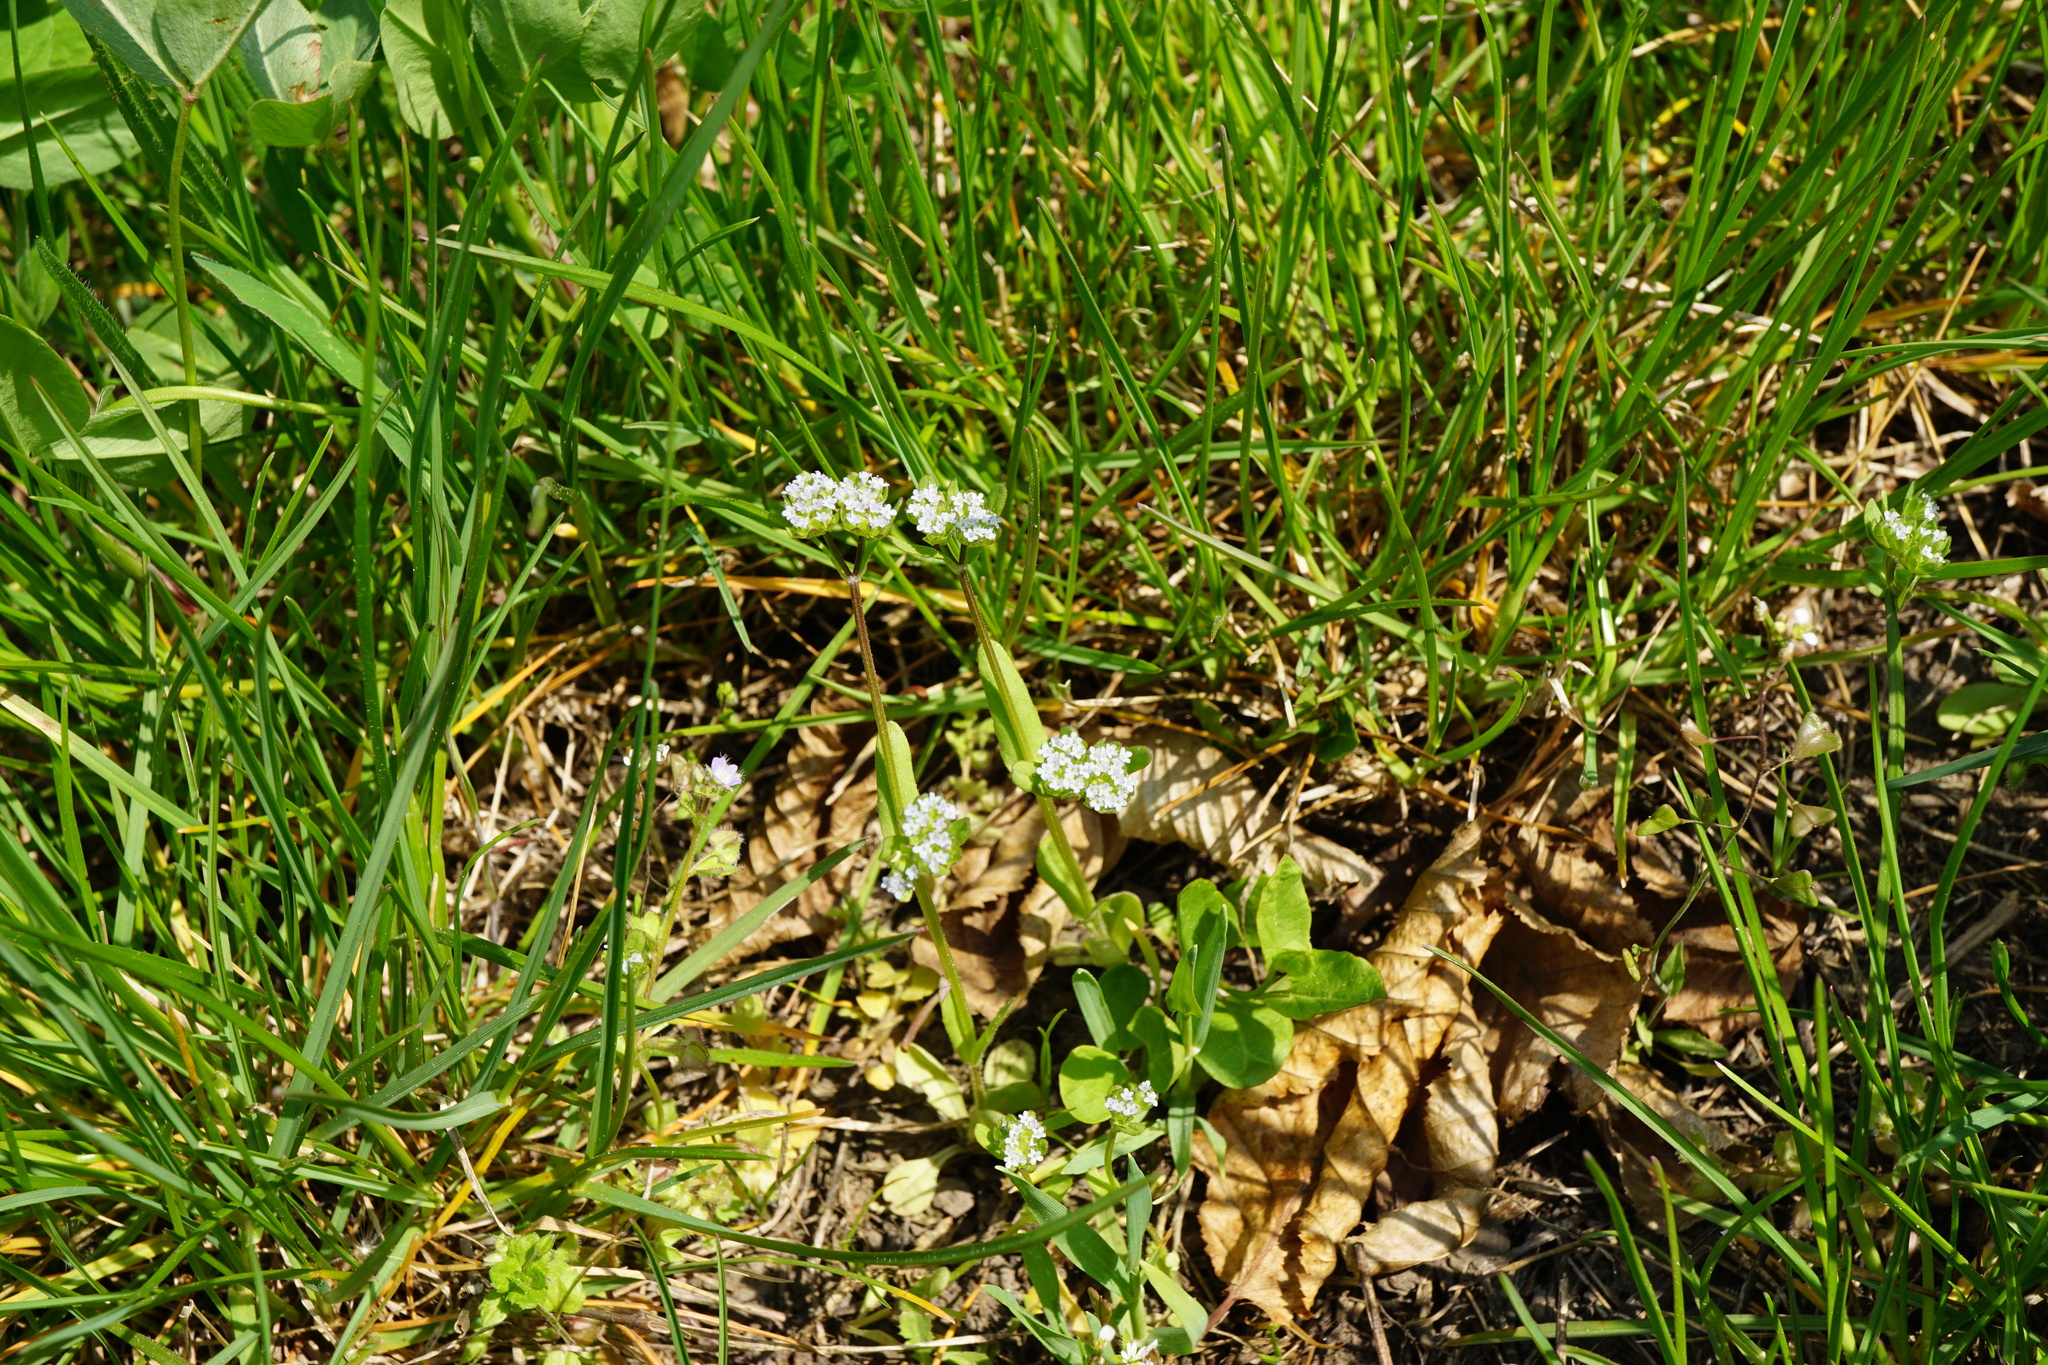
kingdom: Plantae
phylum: Tracheophyta
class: Magnoliopsida
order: Dipsacales
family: Caprifoliaceae
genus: Valerianella
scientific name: Valerianella locusta
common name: Common cornsalad
